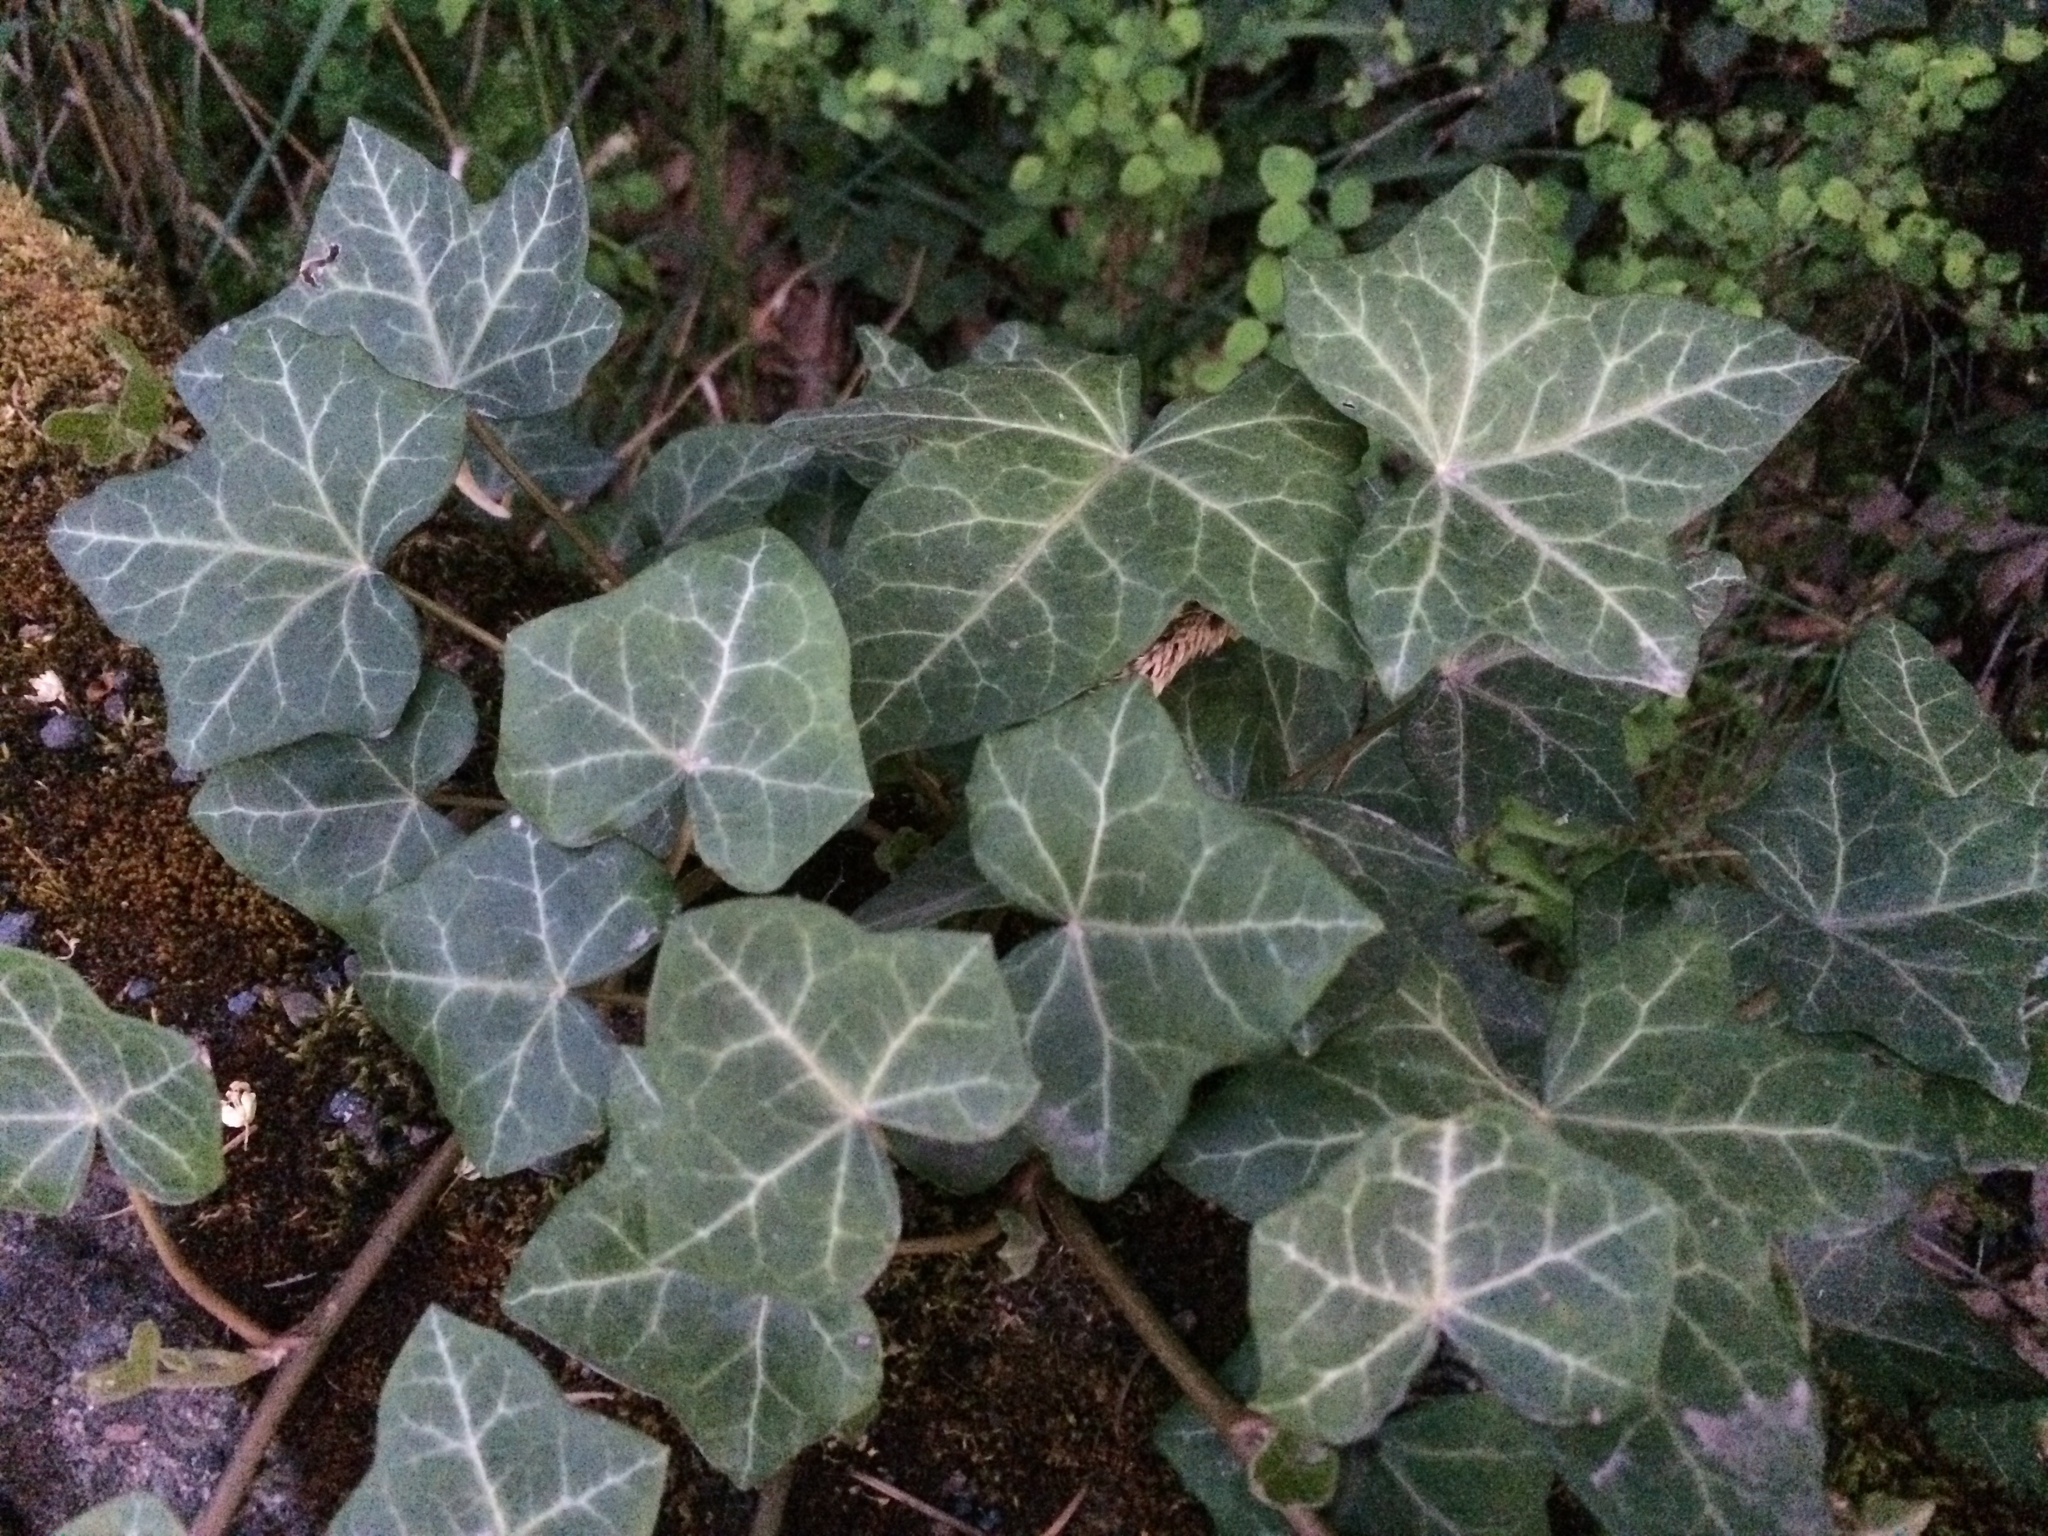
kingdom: Plantae
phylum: Tracheophyta
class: Magnoliopsida
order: Apiales
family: Araliaceae
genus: Hedera
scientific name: Hedera helix
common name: Ivy
